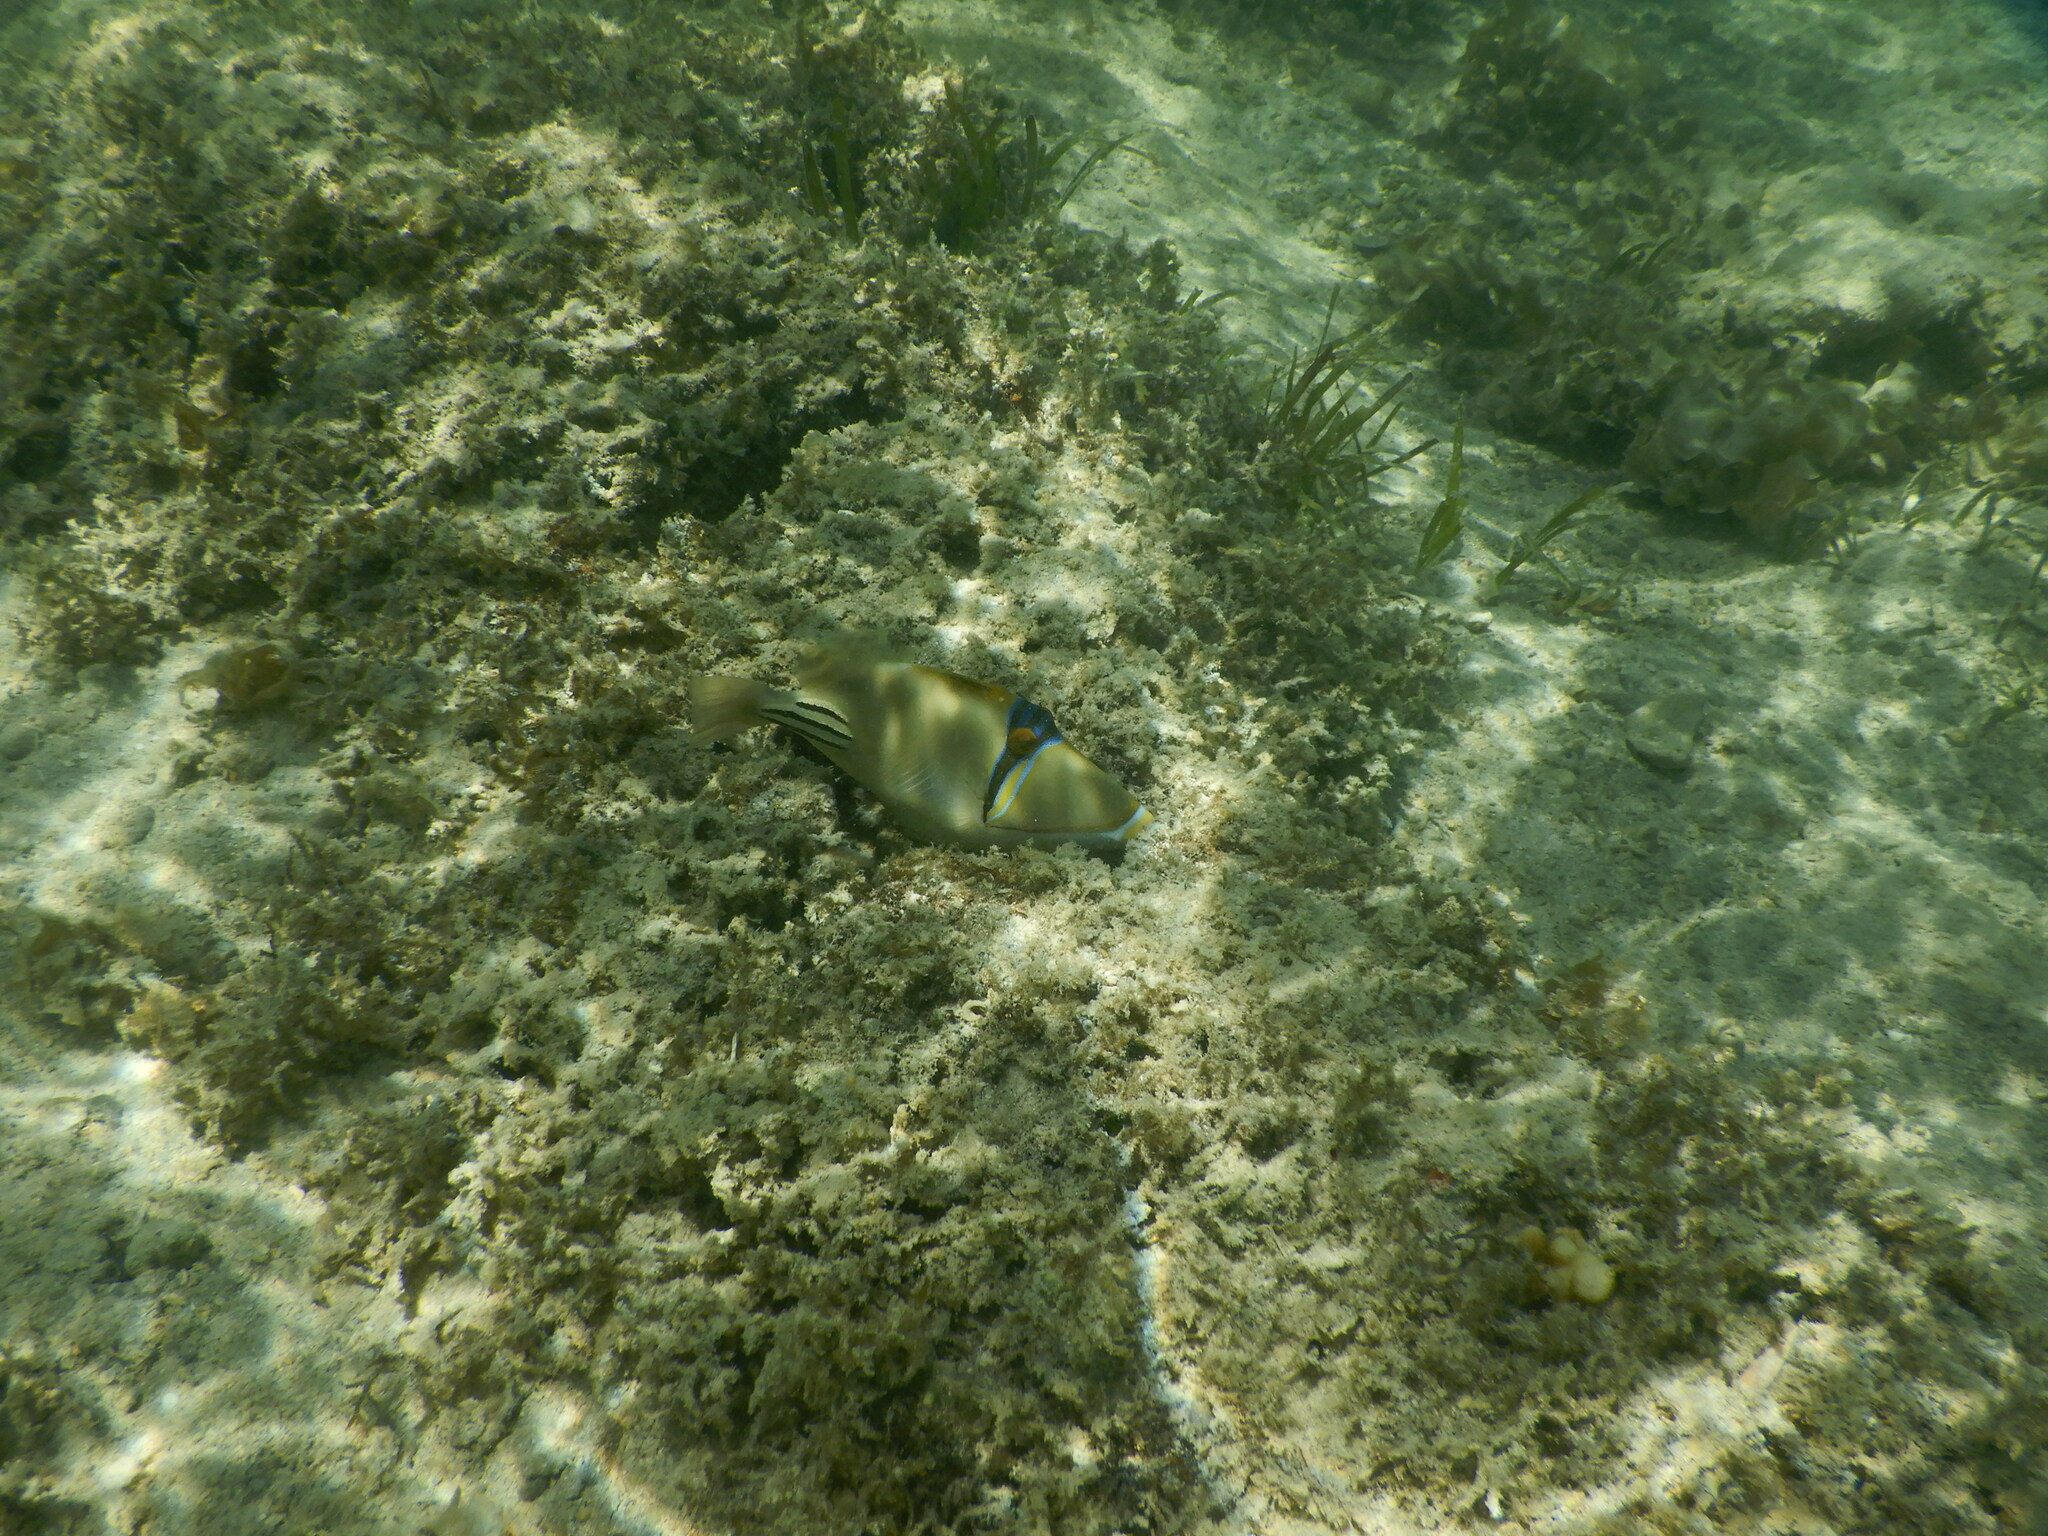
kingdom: Animalia
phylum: Chordata
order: Tetraodontiformes
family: Balistidae
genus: Rhinecanthus
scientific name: Rhinecanthus assasi
